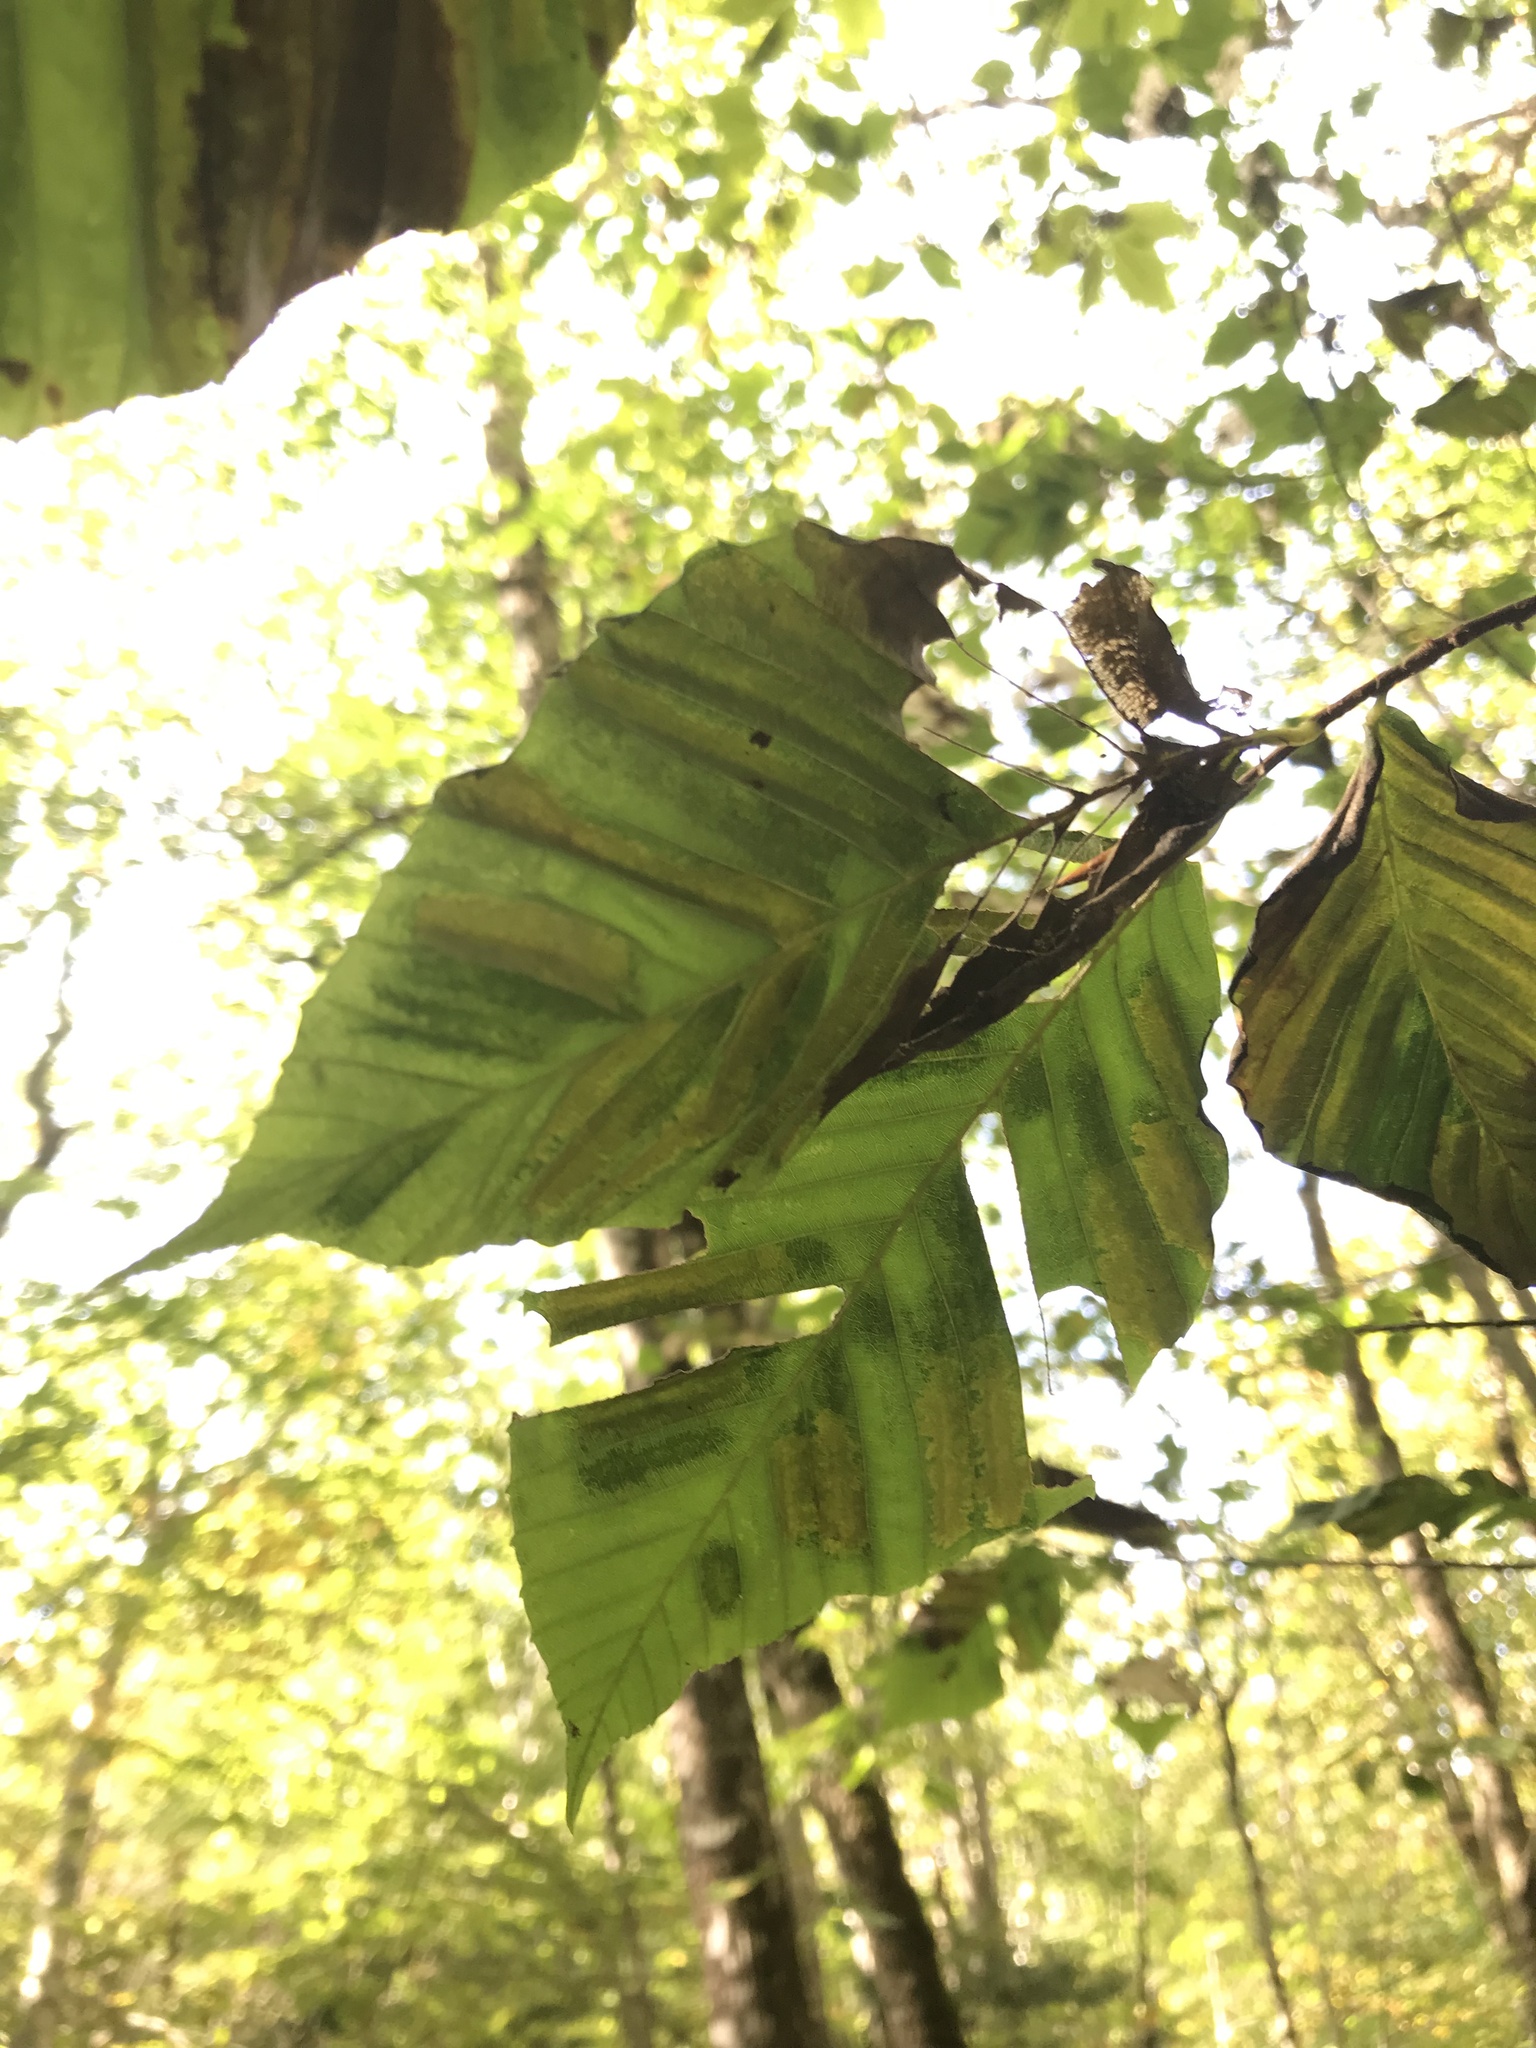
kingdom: Animalia
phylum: Nematoda
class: Chromadorea
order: Rhabditida
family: Anguinidae
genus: Litylenchus
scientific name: Litylenchus crenatae
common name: Beech leaf disease
